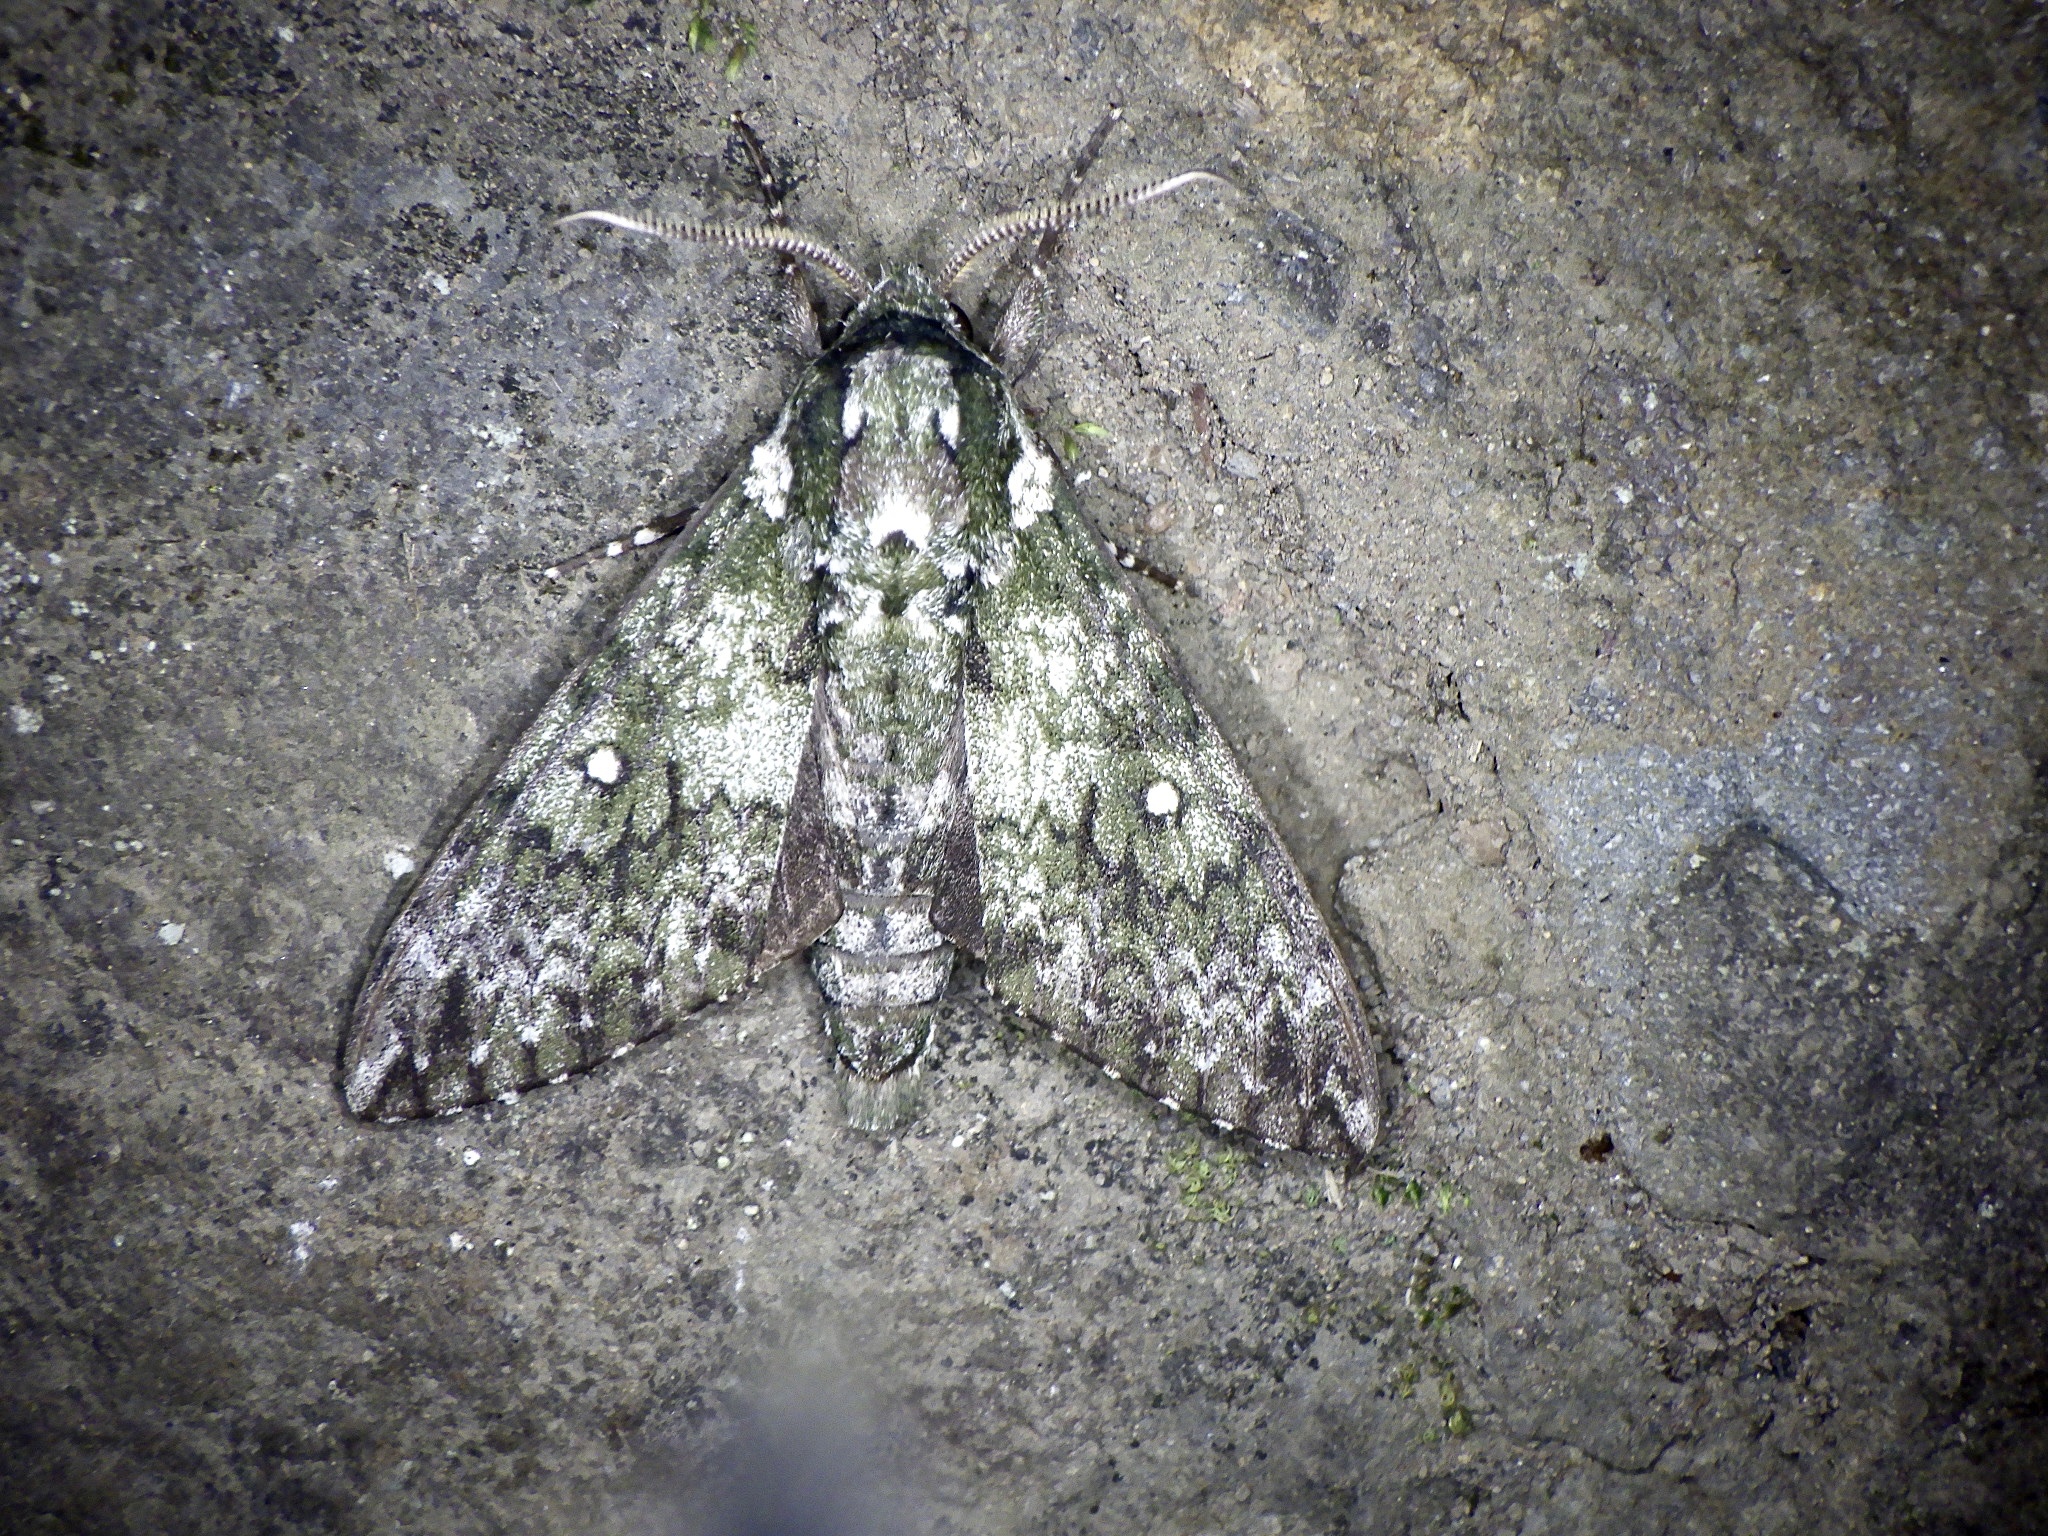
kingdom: Animalia
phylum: Arthropoda
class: Insecta
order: Lepidoptera
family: Sphingidae
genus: Dolbina
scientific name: Dolbina tancrei
